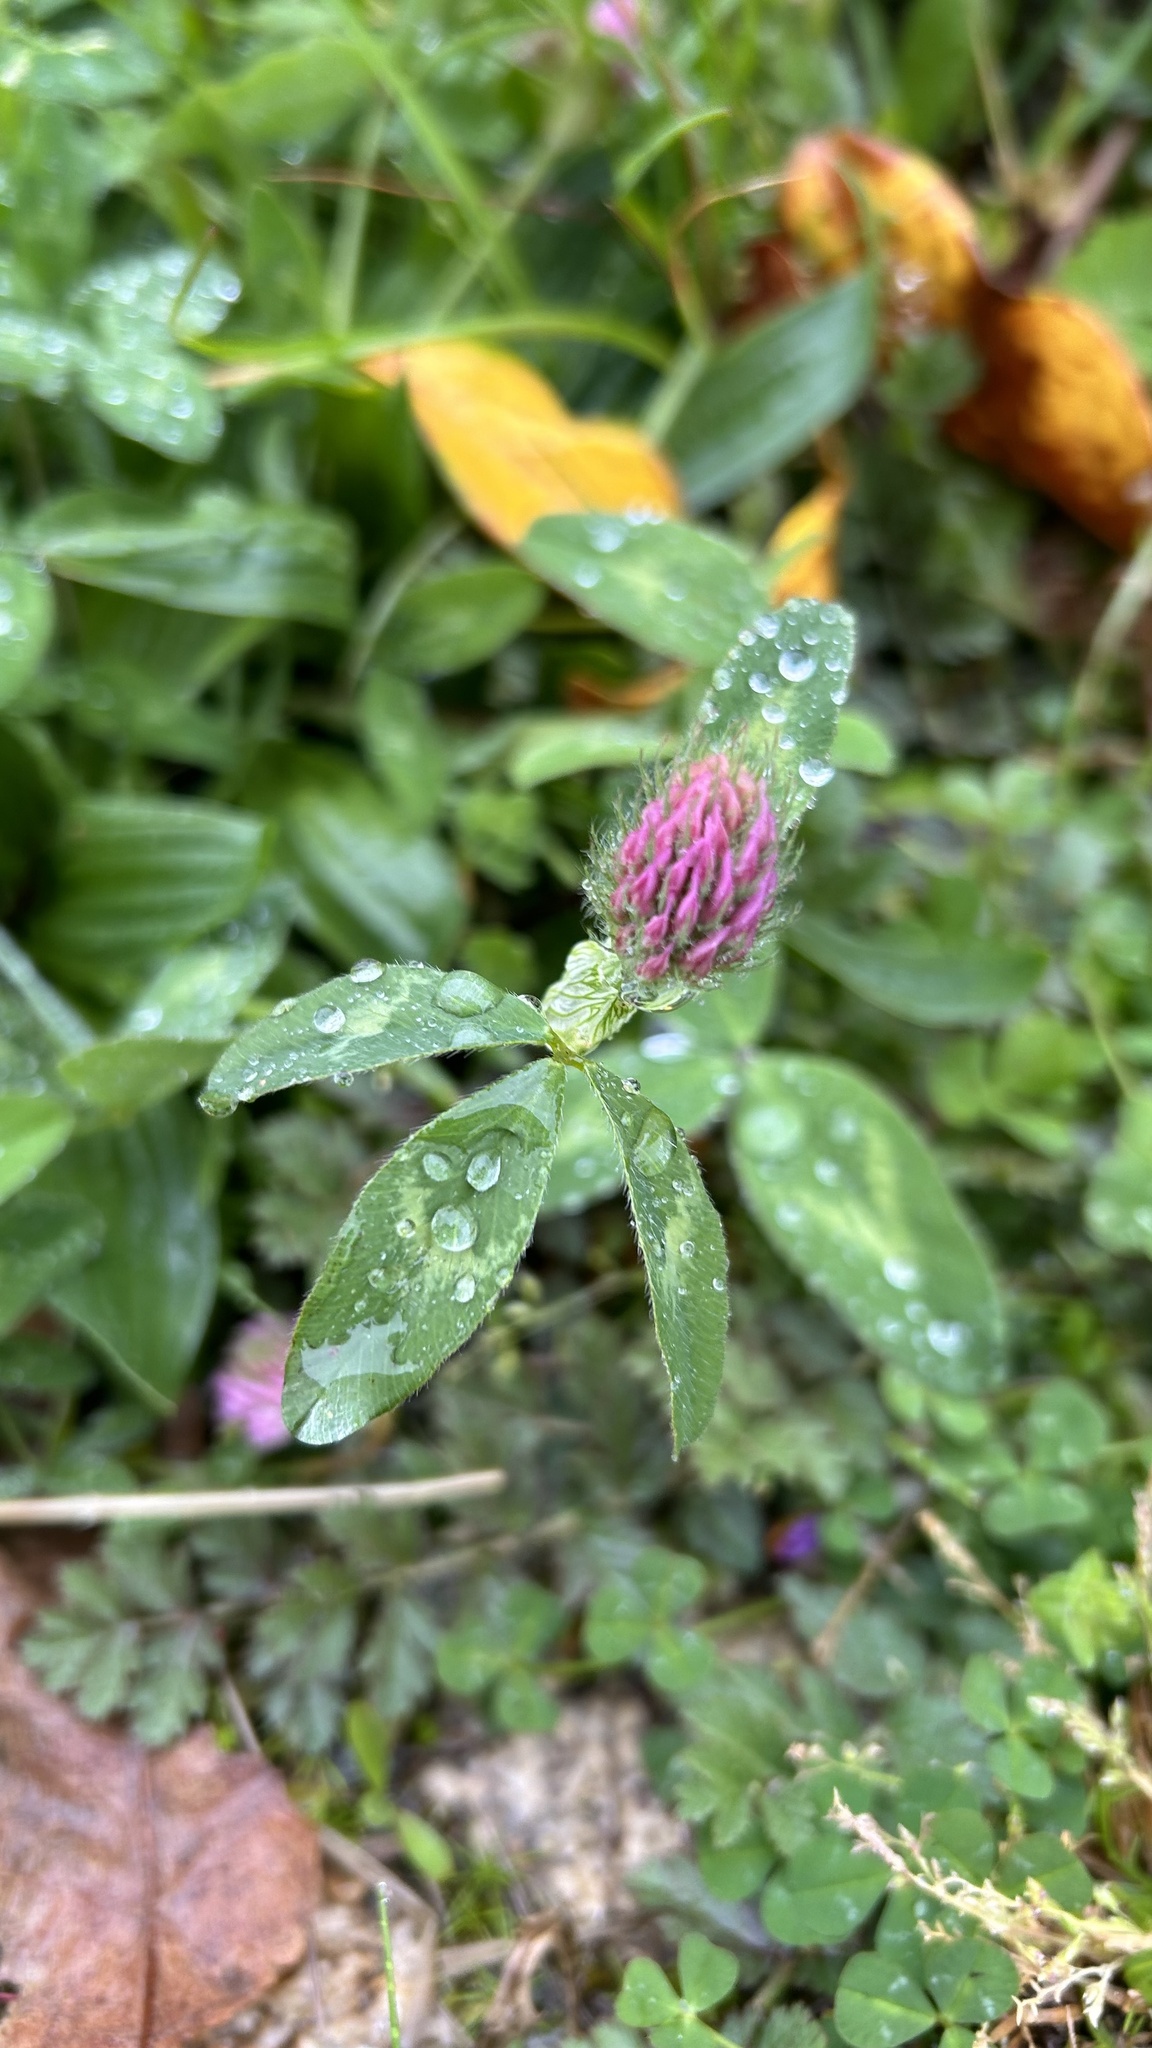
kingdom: Plantae
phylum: Tracheophyta
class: Magnoliopsida
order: Fabales
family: Fabaceae
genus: Trifolium
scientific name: Trifolium pratense
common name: Red clover
